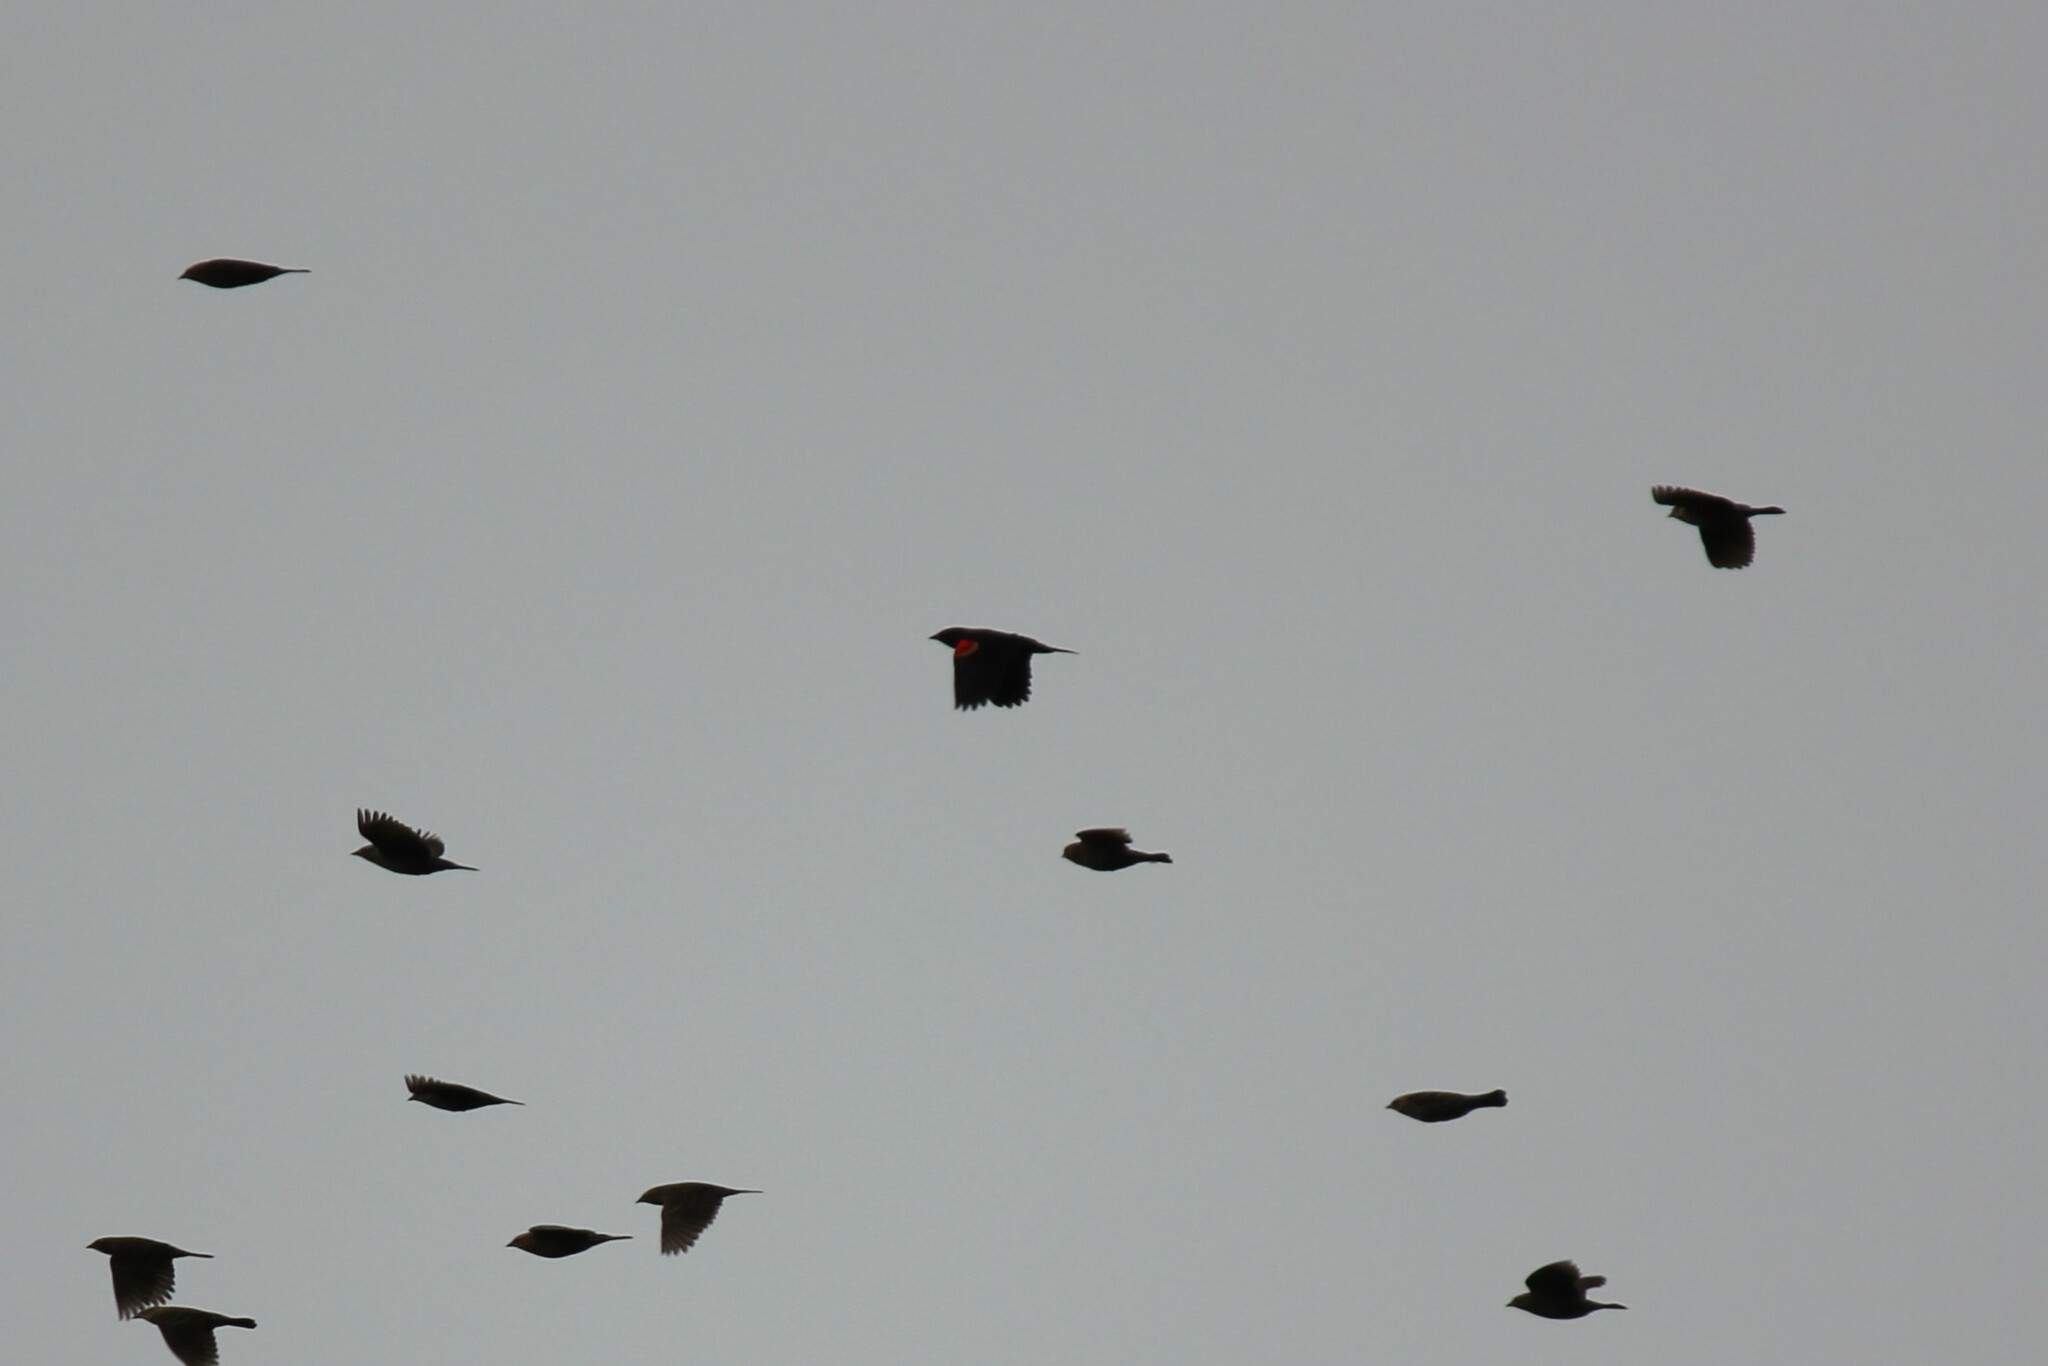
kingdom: Animalia
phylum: Chordata
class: Aves
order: Passeriformes
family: Icteridae
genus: Agelaius
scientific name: Agelaius phoeniceus
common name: Red-winged blackbird
